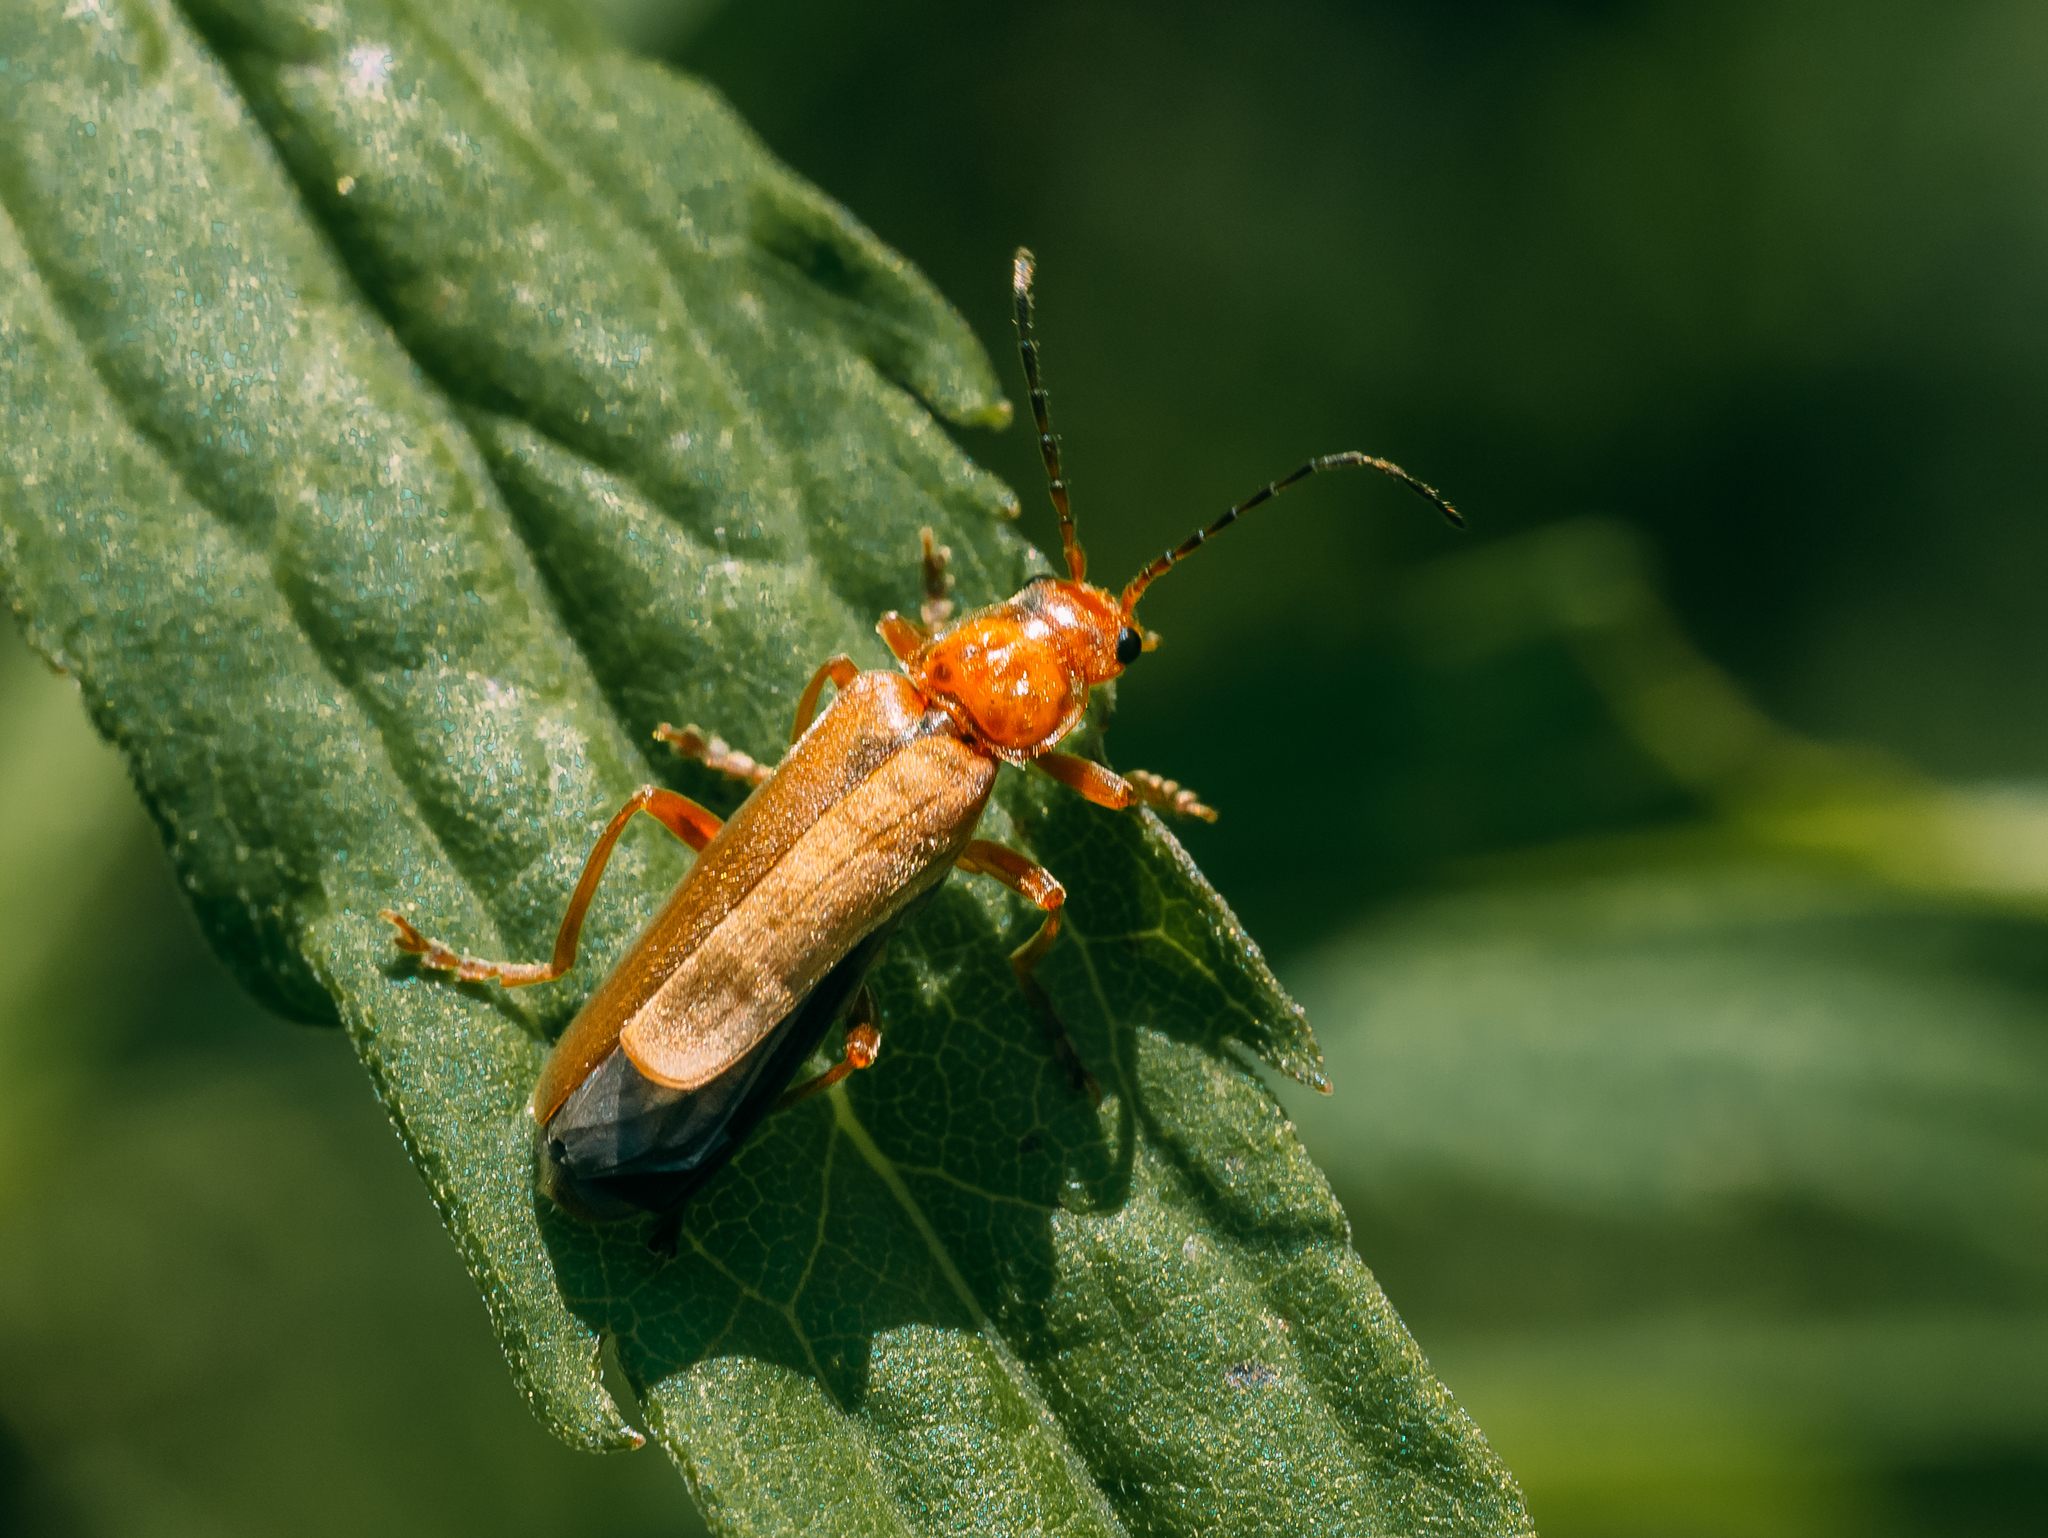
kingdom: Animalia
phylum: Arthropoda
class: Insecta
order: Coleoptera
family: Cantharidae
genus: Cantharis
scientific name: Cantharis rufa
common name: Red-spotted soldier beetle
